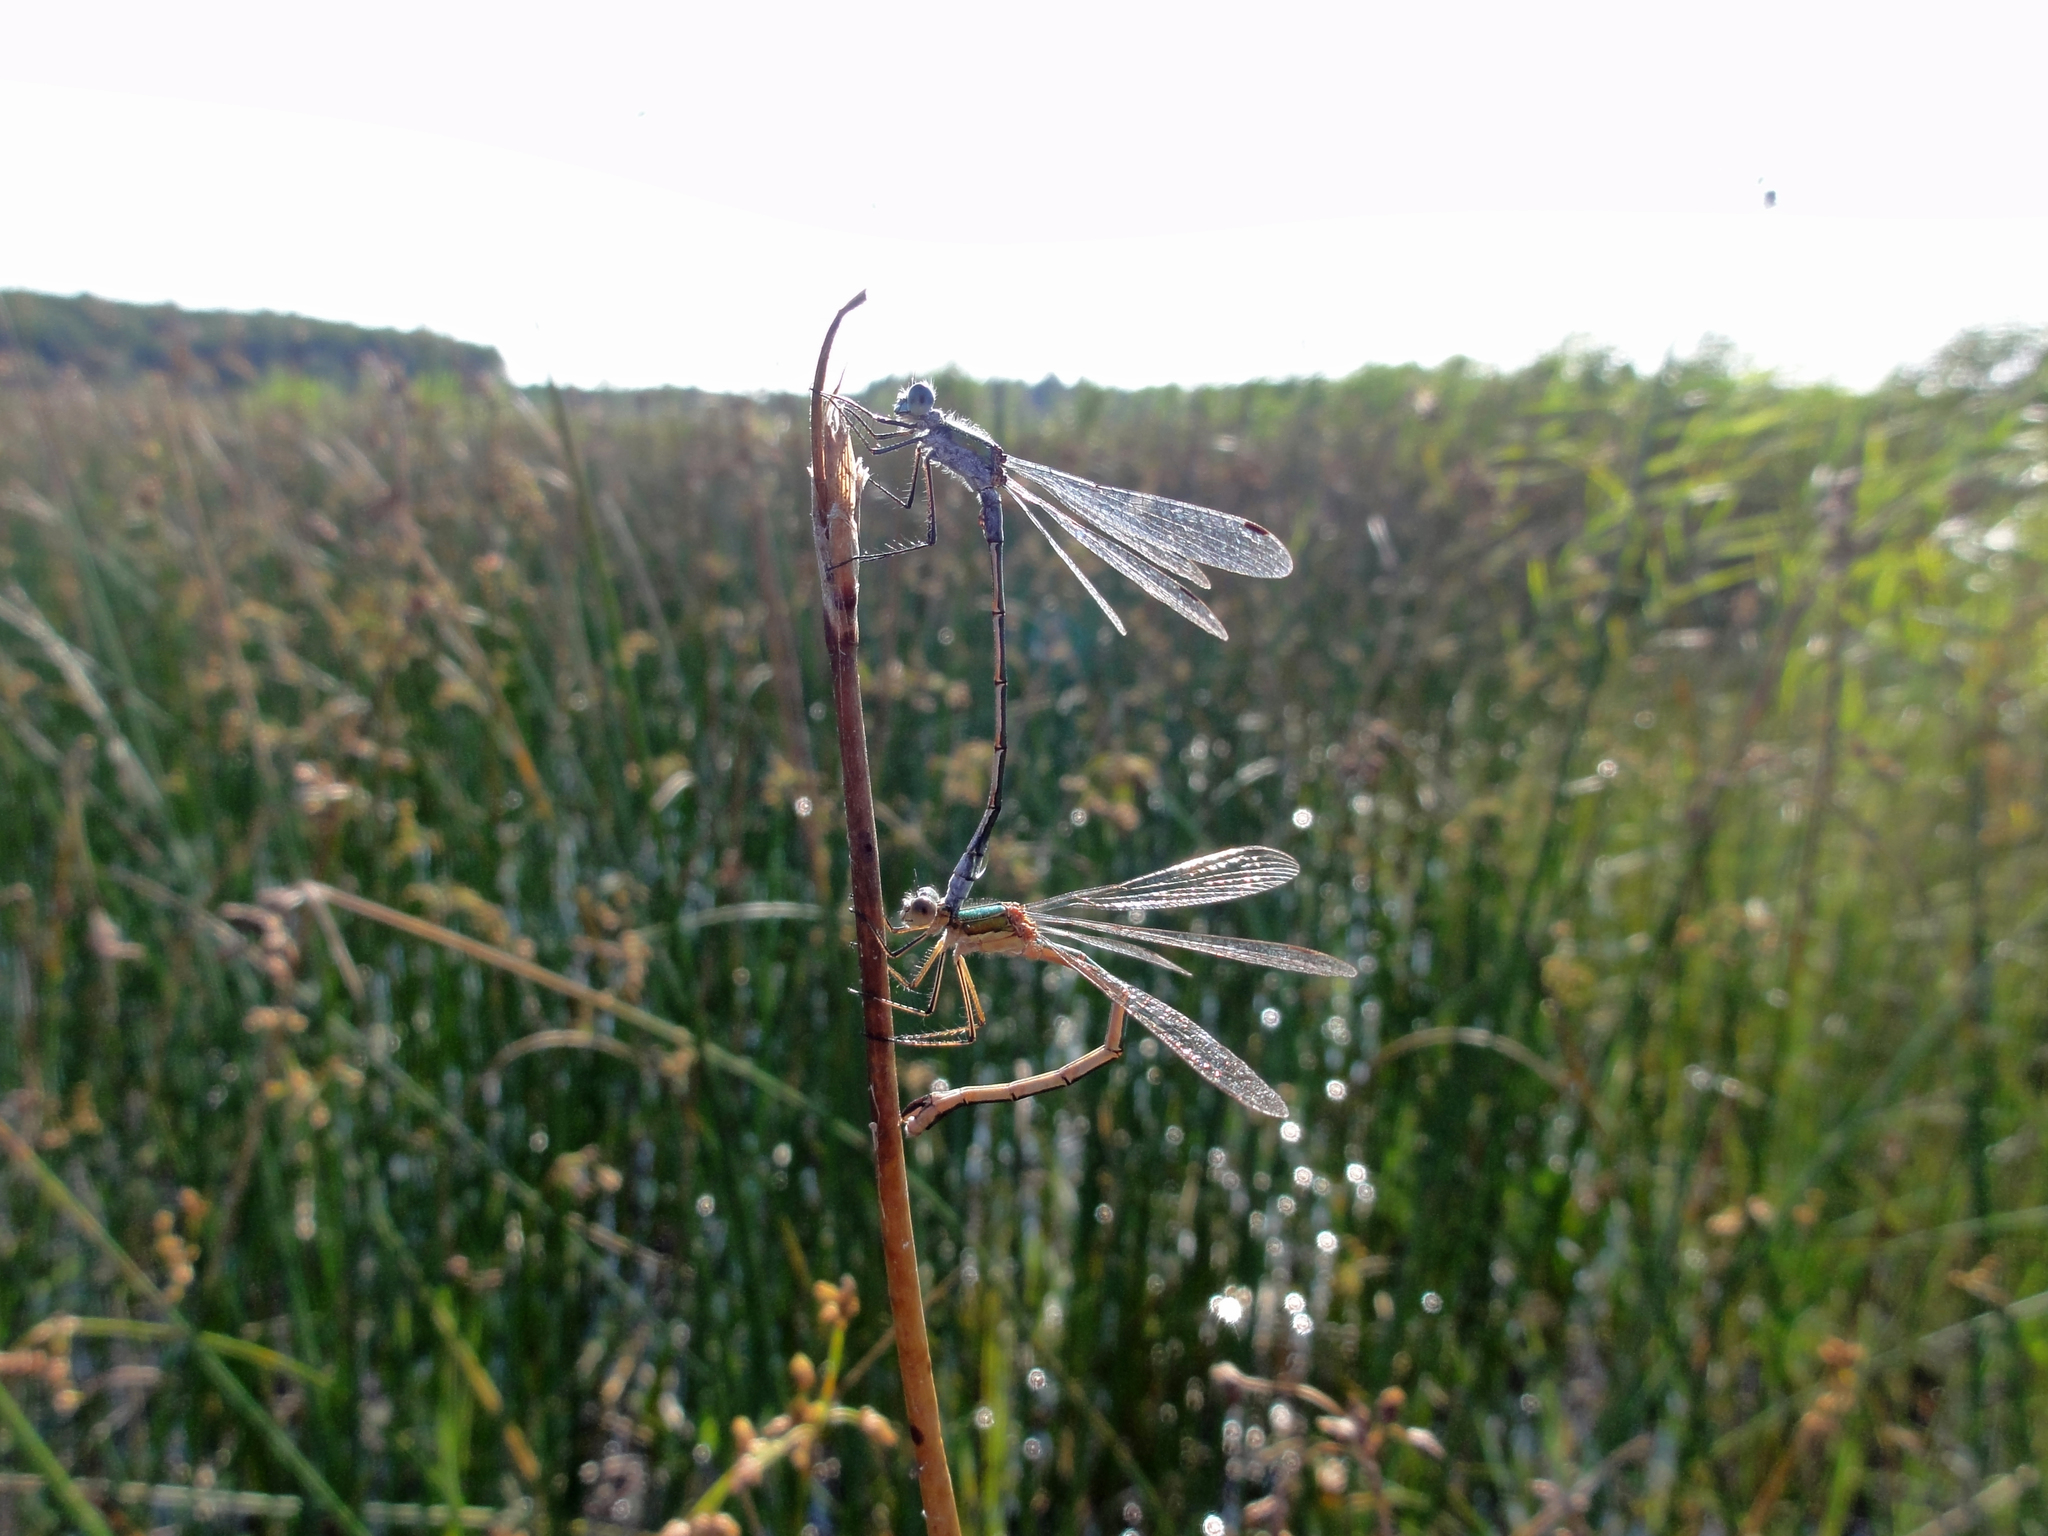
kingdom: Animalia
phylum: Arthropoda
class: Insecta
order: Odonata
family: Lestidae
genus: Lestes
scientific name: Lestes sponsa
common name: Common spreadwing
